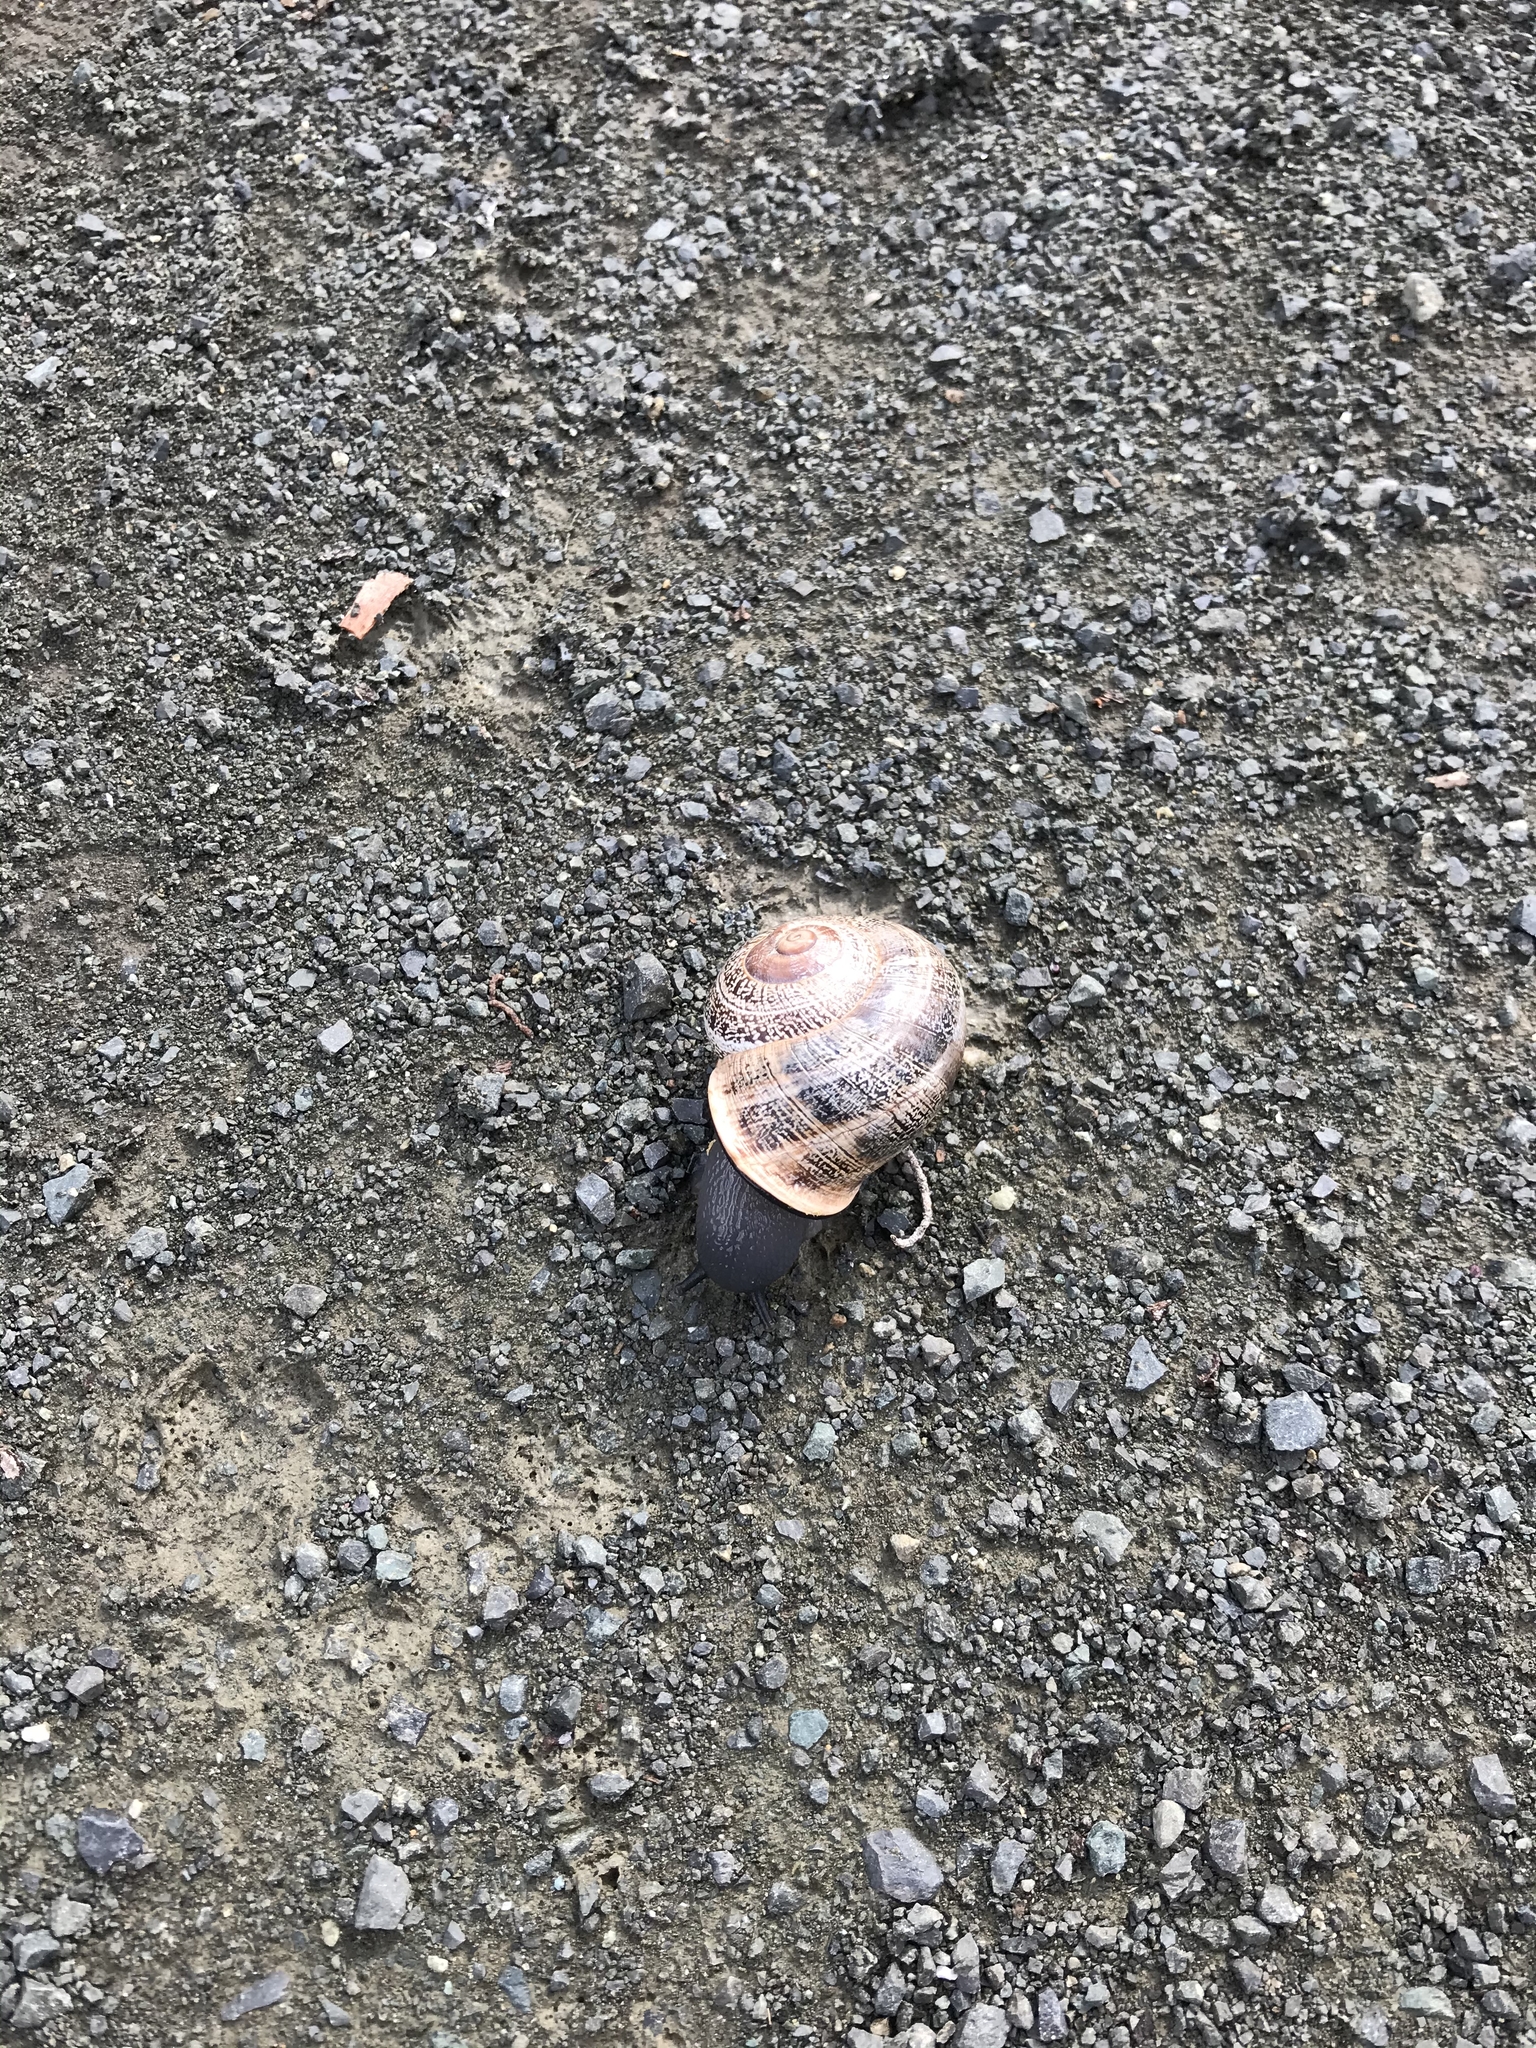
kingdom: Animalia
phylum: Mollusca
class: Gastropoda
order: Stylommatophora
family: Helicidae
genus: Otala
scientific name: Otala lactea
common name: Milk snail
